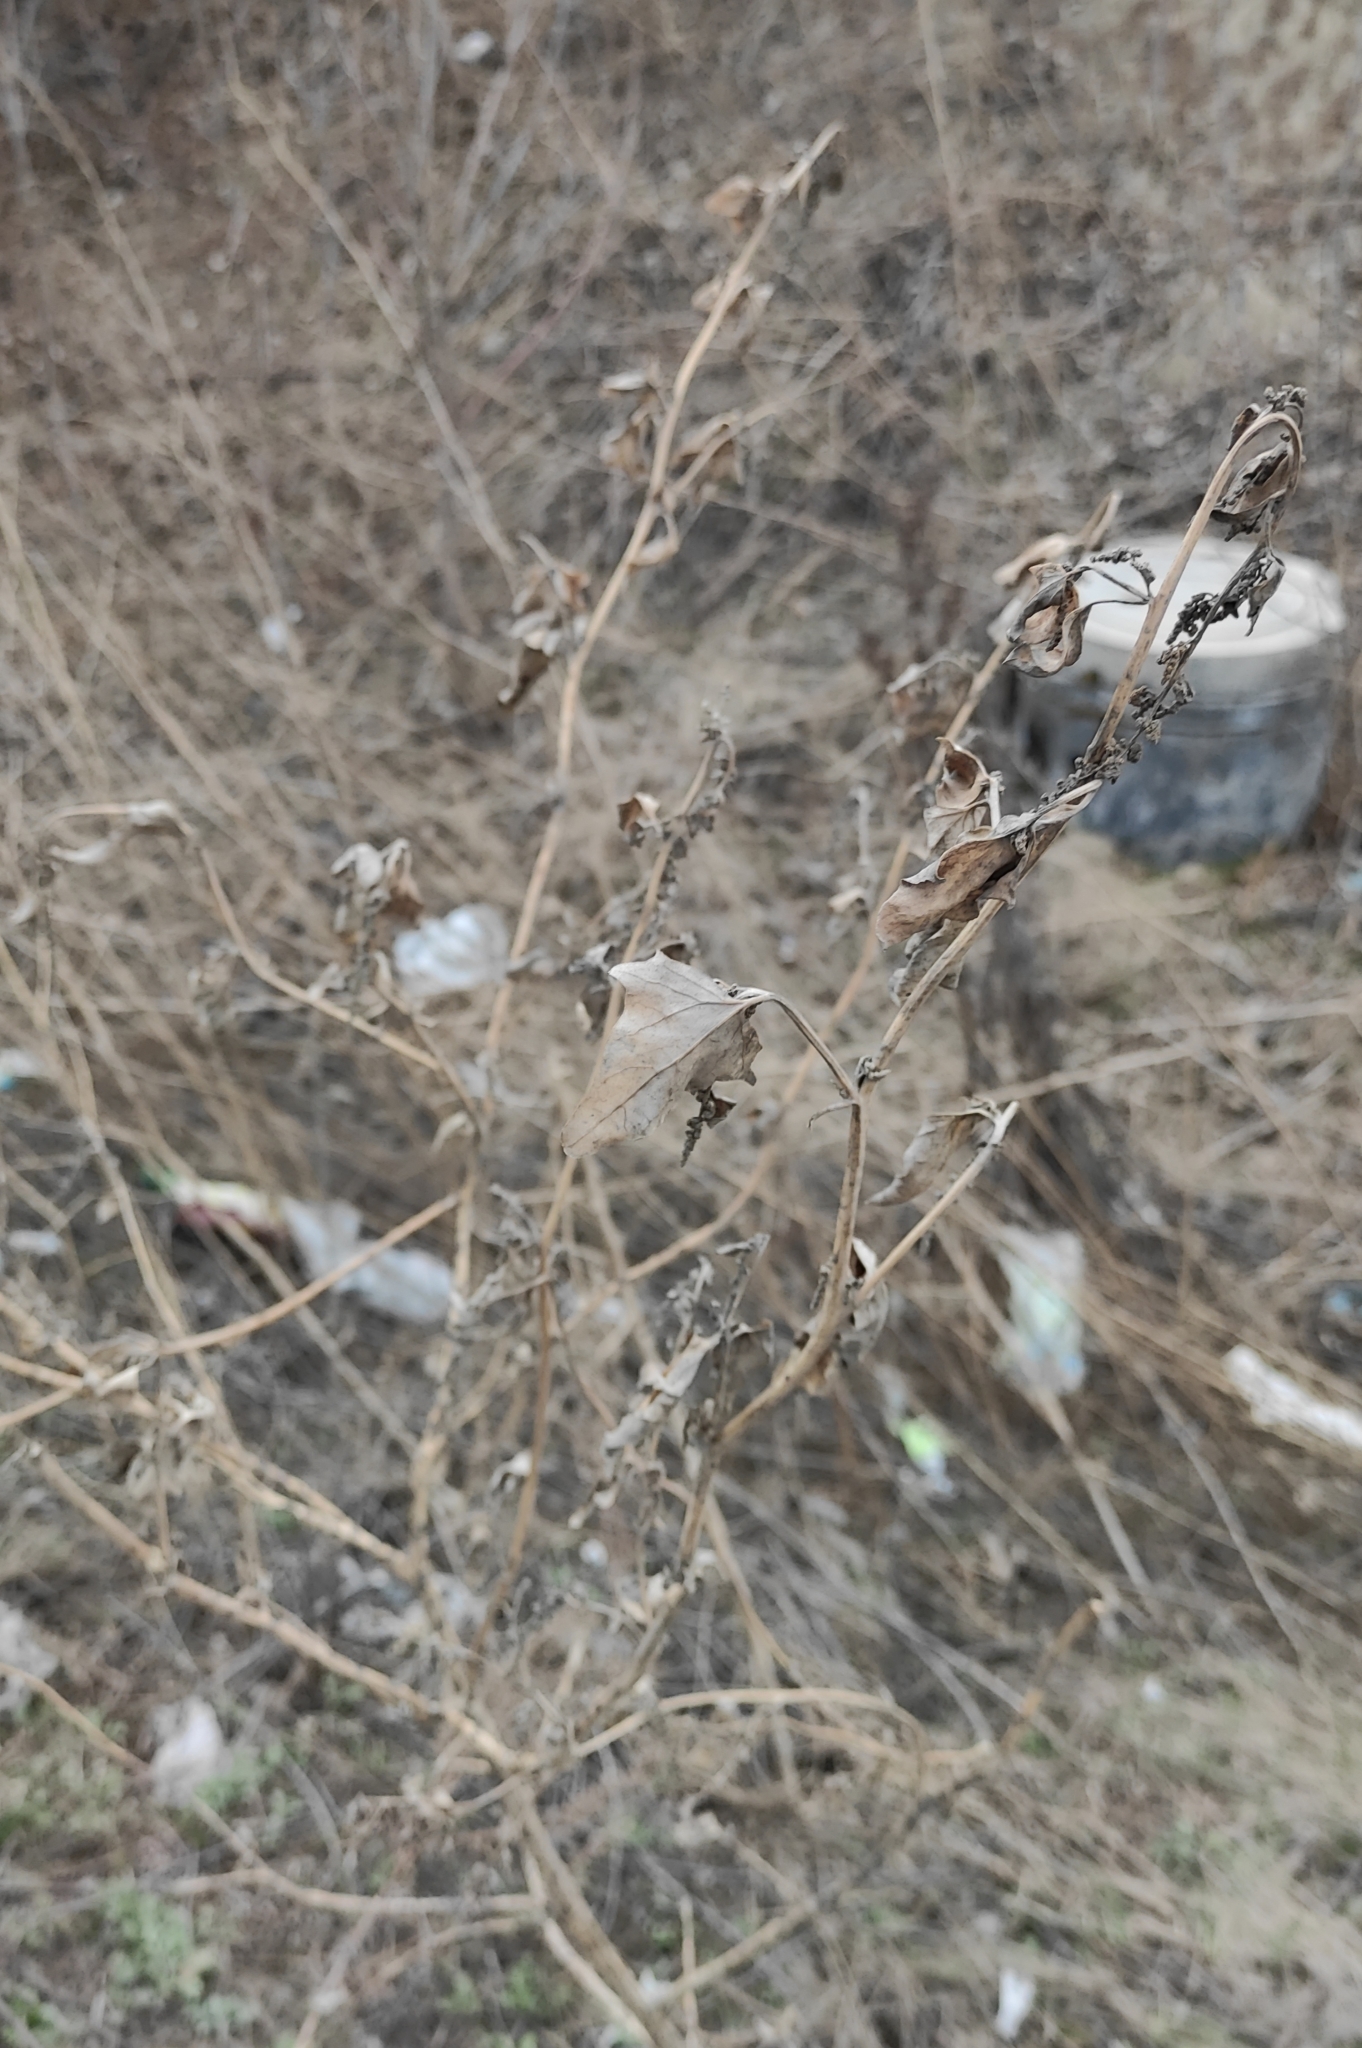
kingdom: Plantae
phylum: Tracheophyta
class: Magnoliopsida
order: Caryophyllales
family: Amaranthaceae
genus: Atriplex
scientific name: Atriplex sagittata
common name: Purple orache
